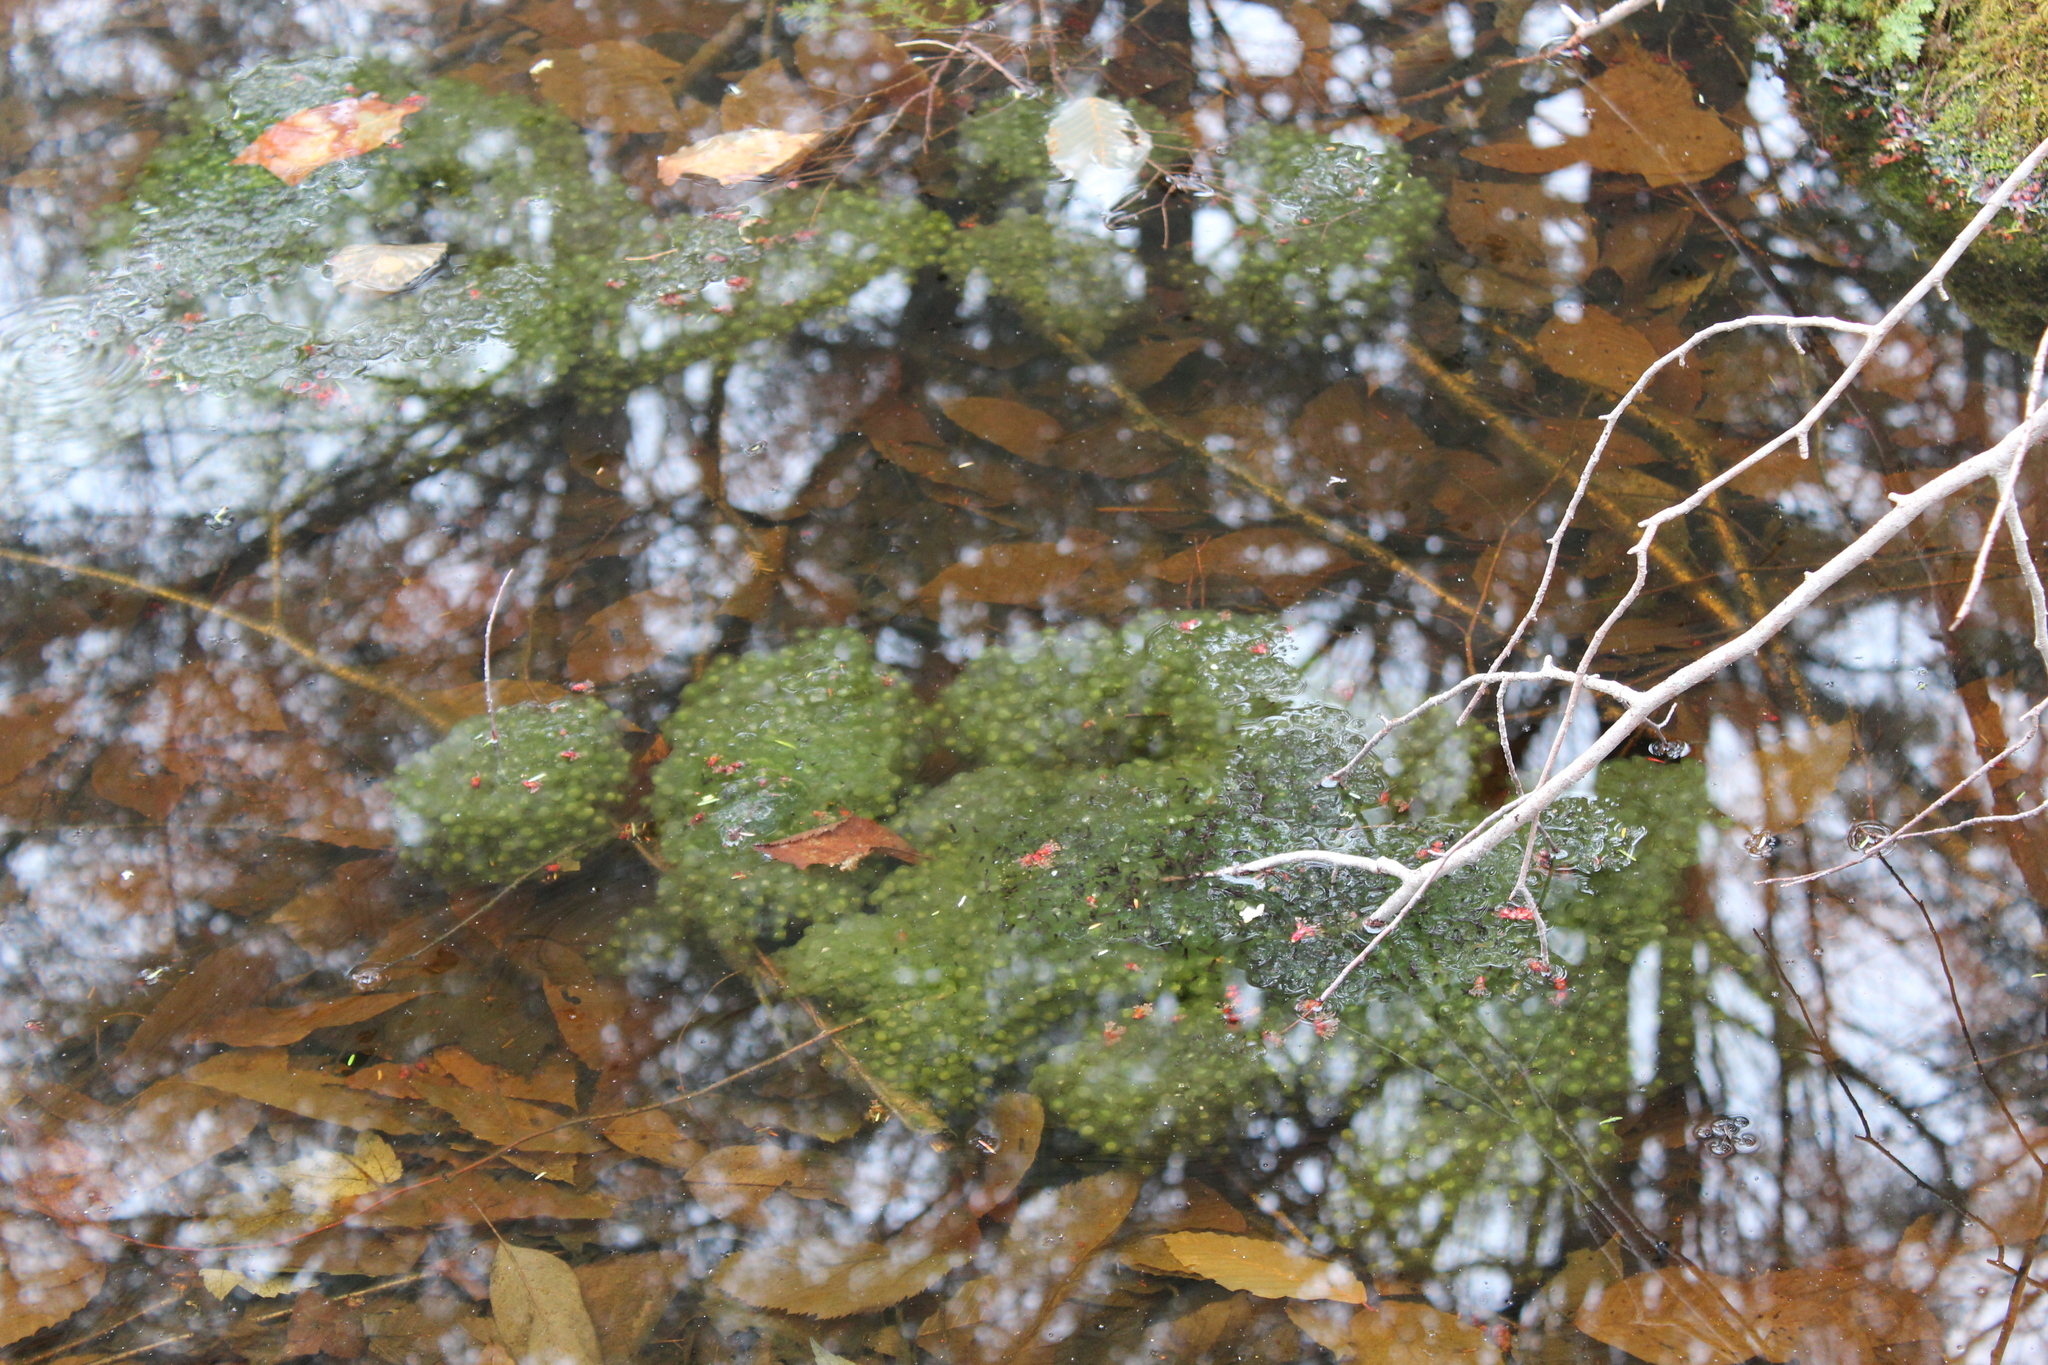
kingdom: Animalia
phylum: Chordata
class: Amphibia
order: Anura
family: Ranidae
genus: Lithobates
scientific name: Lithobates sylvaticus
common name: Wood frog
